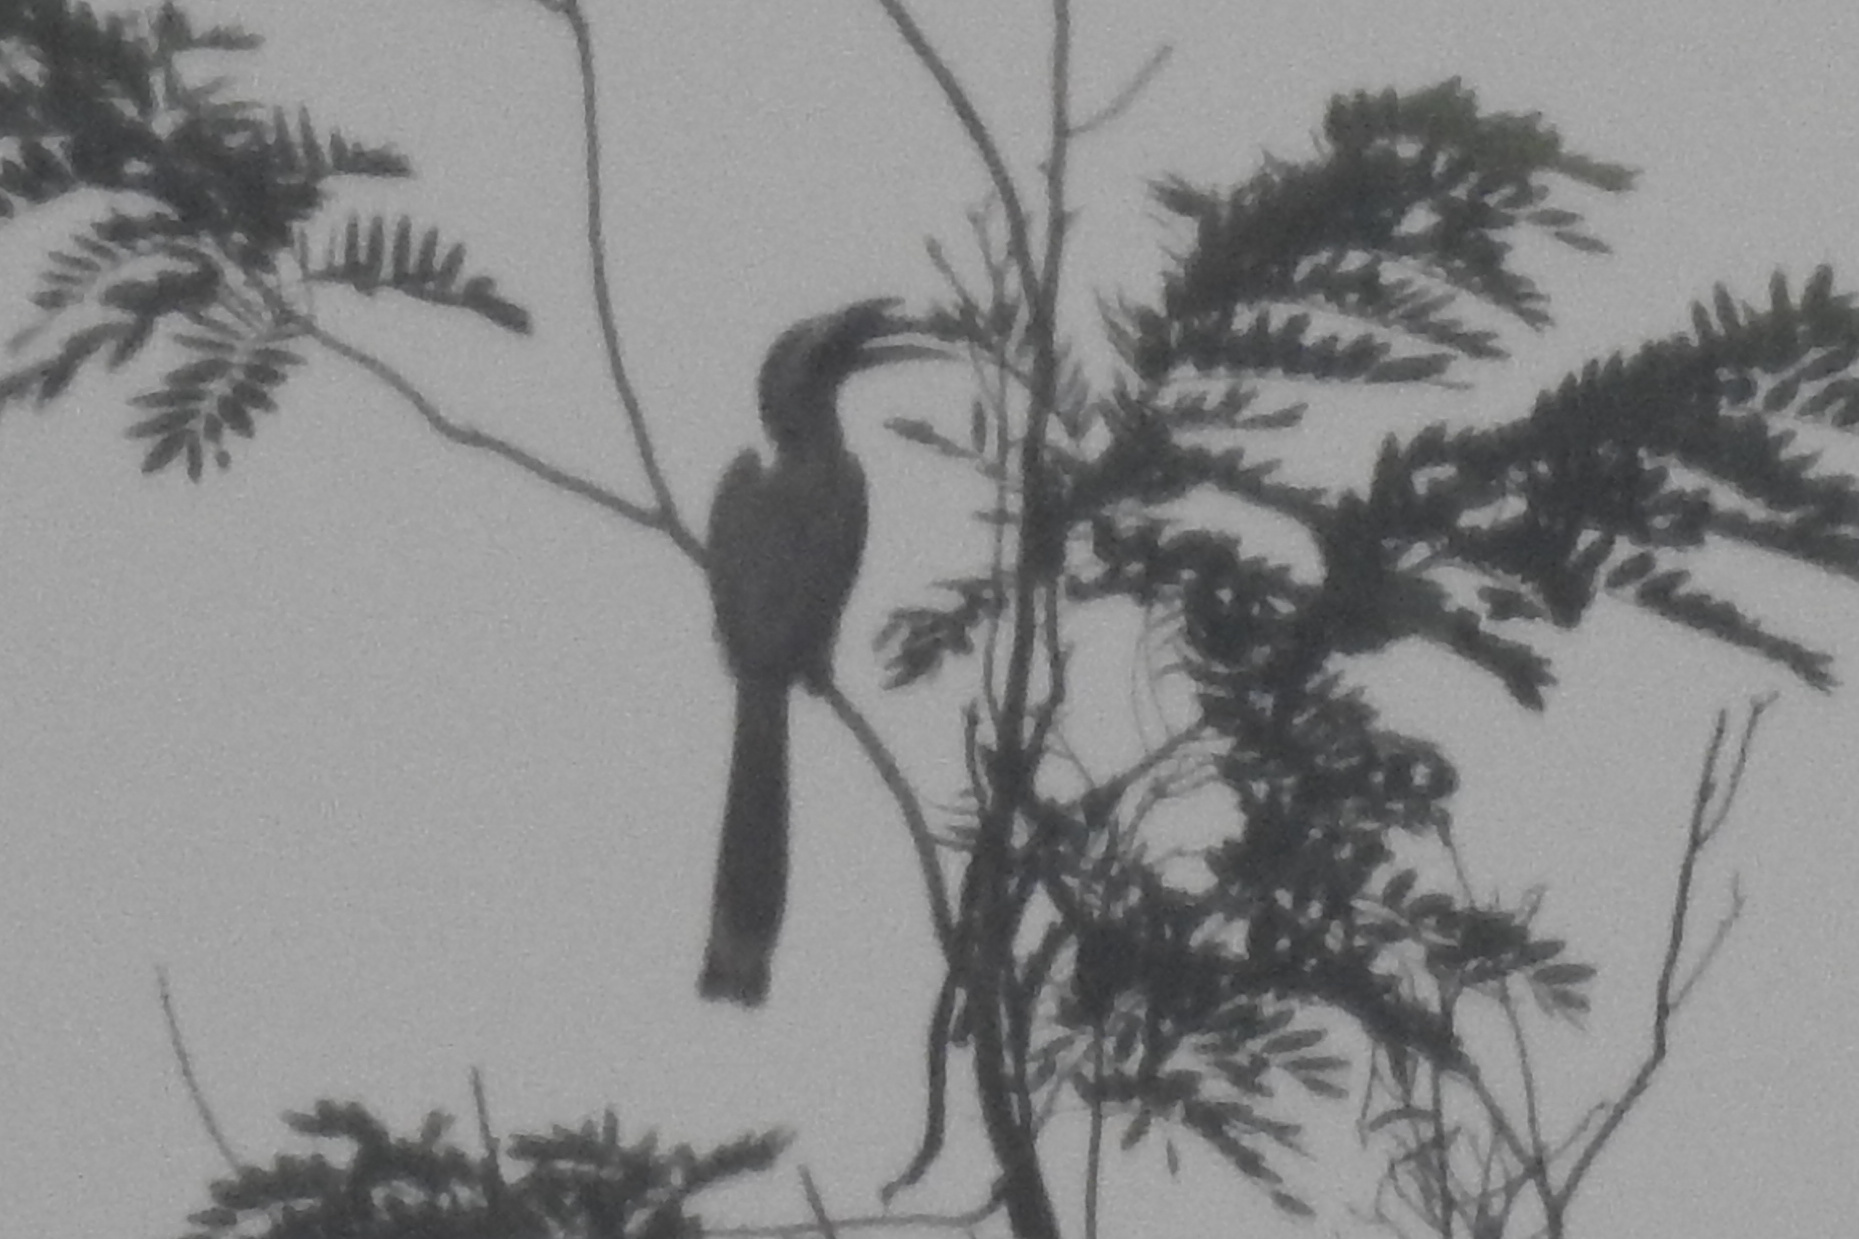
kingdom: Animalia
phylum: Chordata
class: Aves
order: Bucerotiformes
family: Bucerotidae
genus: Ocyceros
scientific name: Ocyceros birostris
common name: Indian grey hornbill
